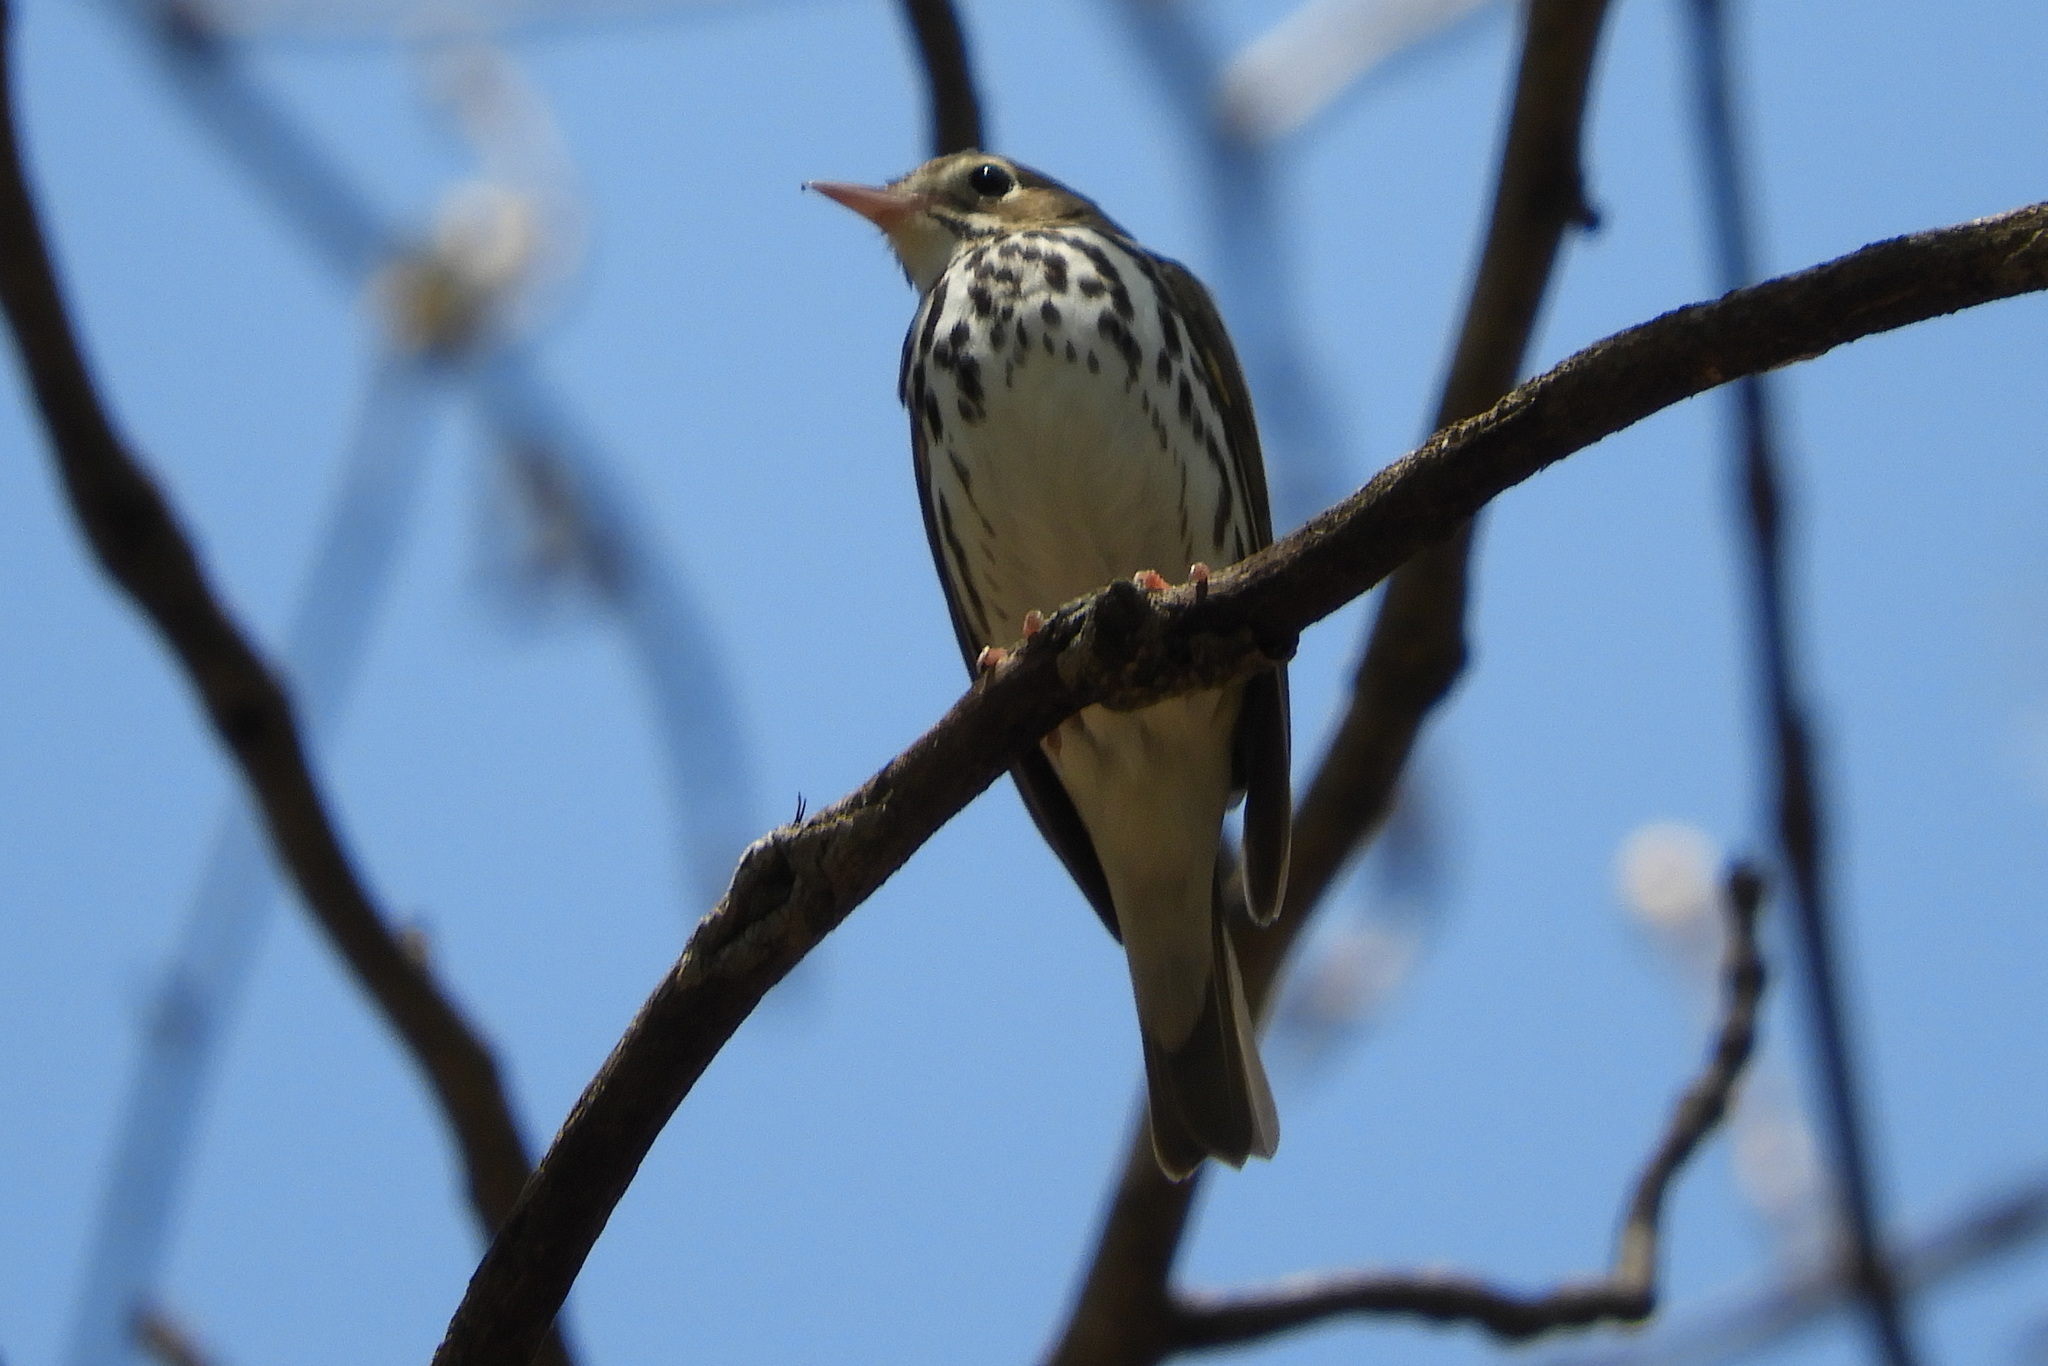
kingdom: Animalia
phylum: Chordata
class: Aves
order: Passeriformes
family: Parulidae
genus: Seiurus
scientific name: Seiurus aurocapilla
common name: Ovenbird
